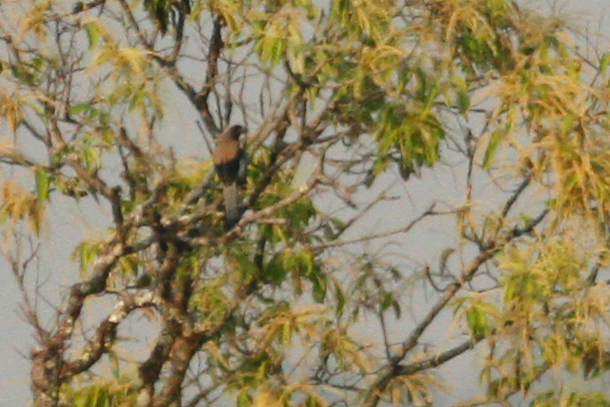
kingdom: Animalia
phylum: Chordata
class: Aves
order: Passeriformes
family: Corvidae
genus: Dendrocitta
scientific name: Dendrocitta formosae
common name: Grey treepie
